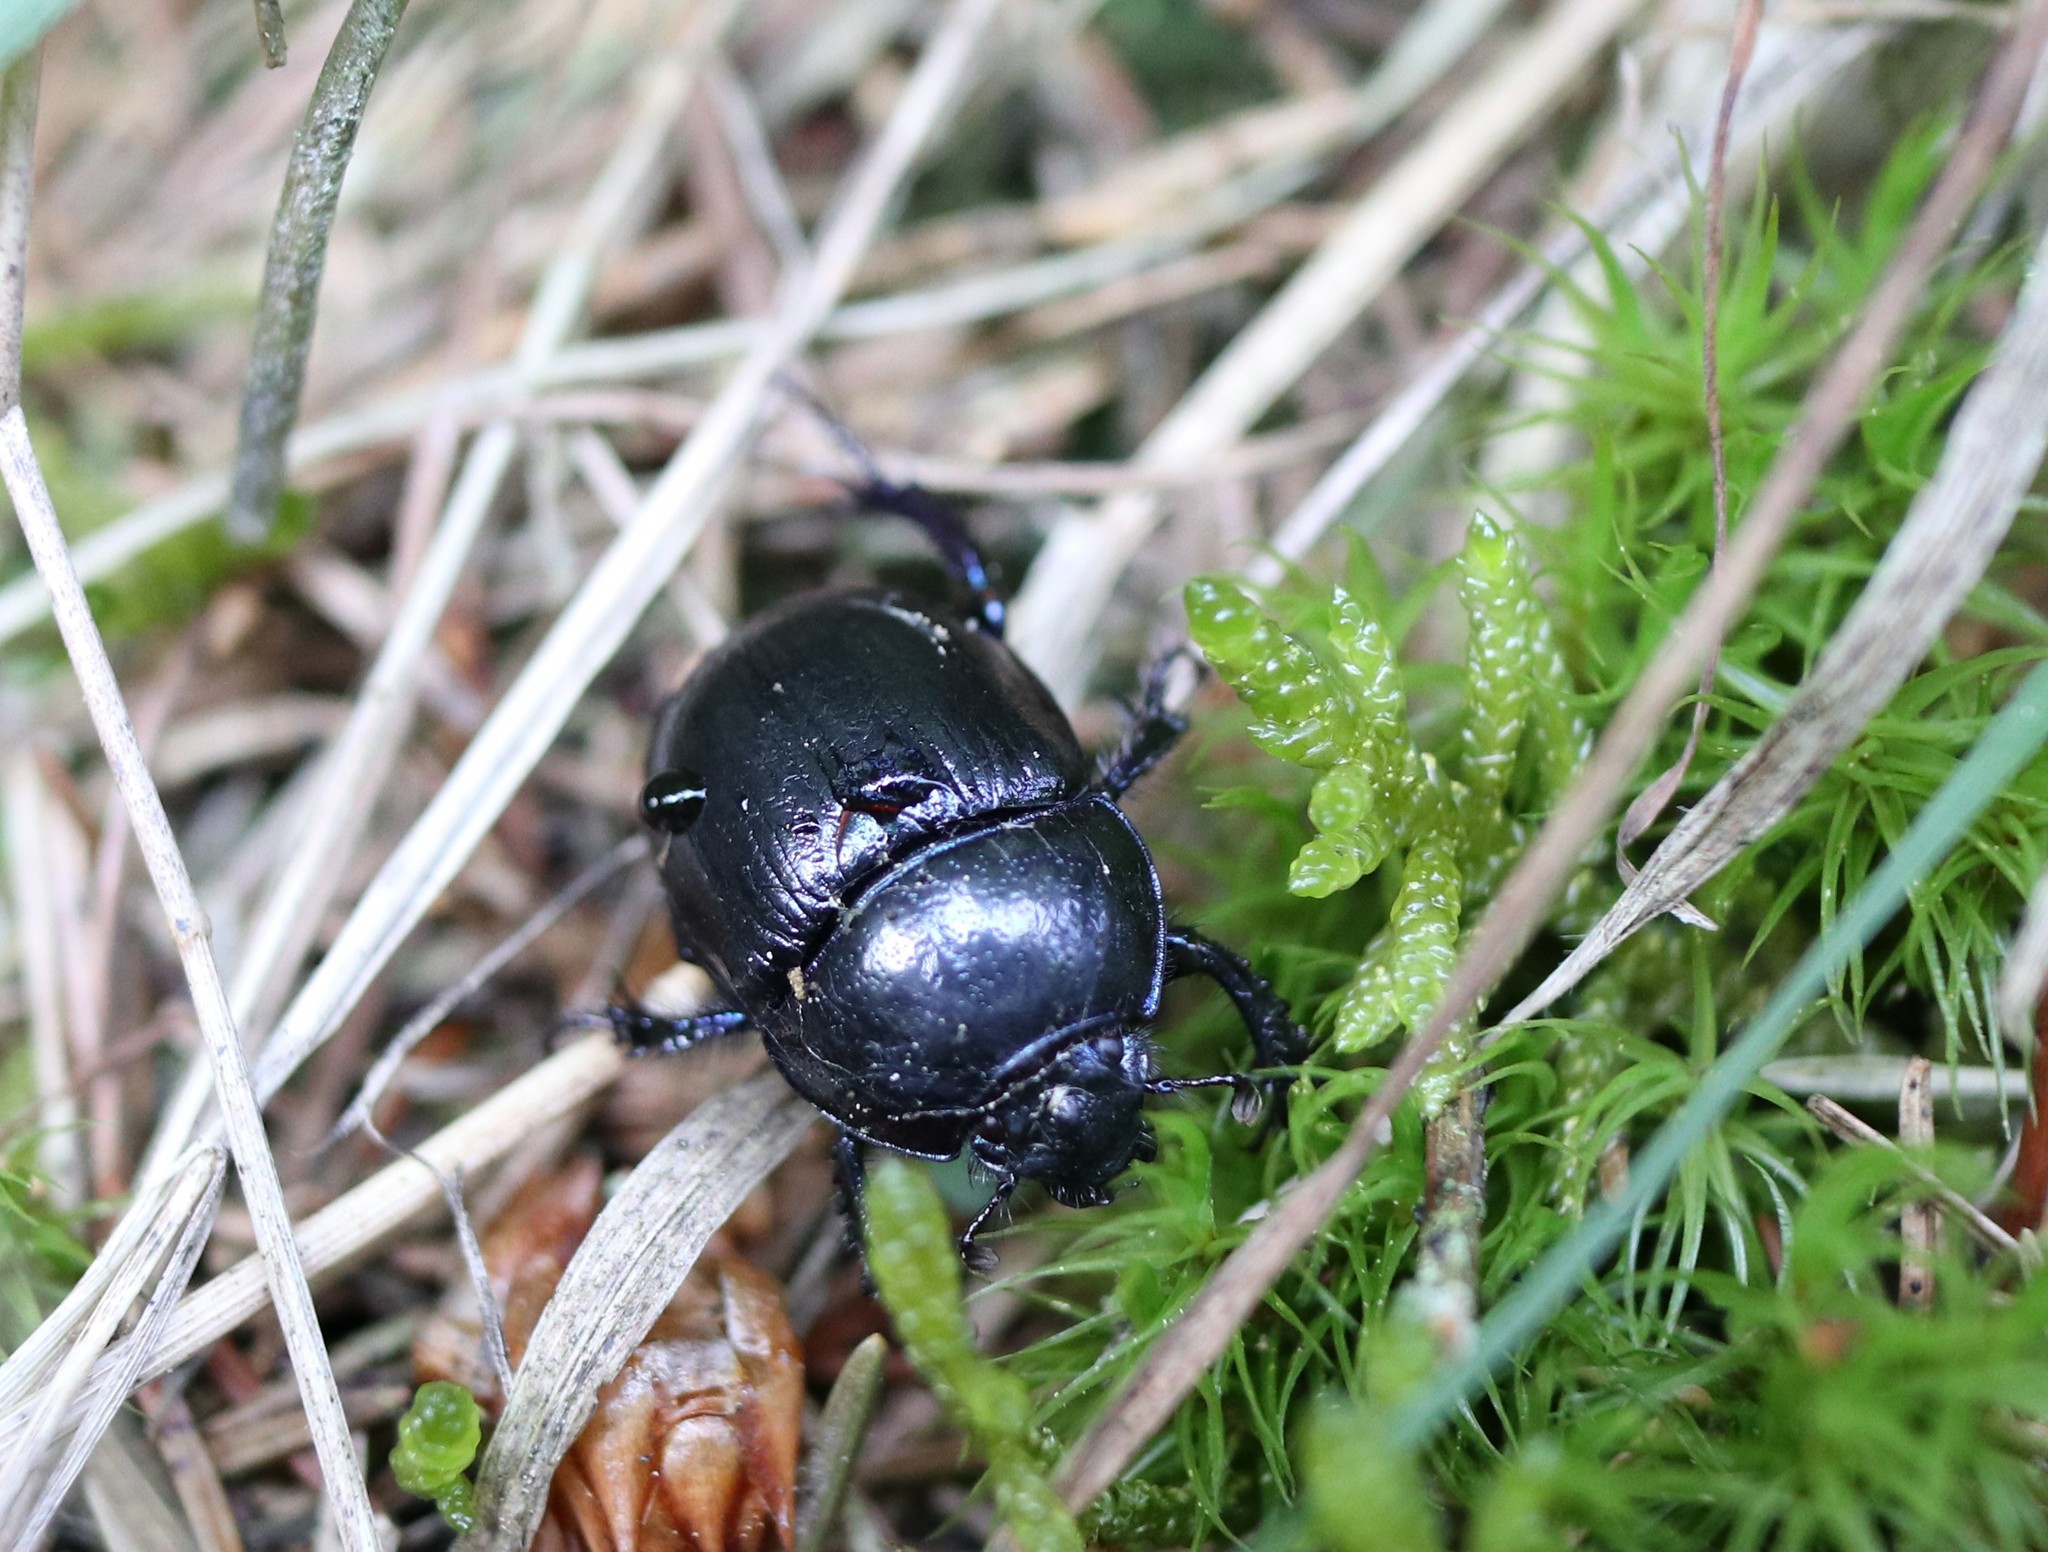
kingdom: Animalia
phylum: Arthropoda
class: Insecta
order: Coleoptera
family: Geotrupidae
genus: Anoplotrupes
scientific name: Anoplotrupes stercorosus
